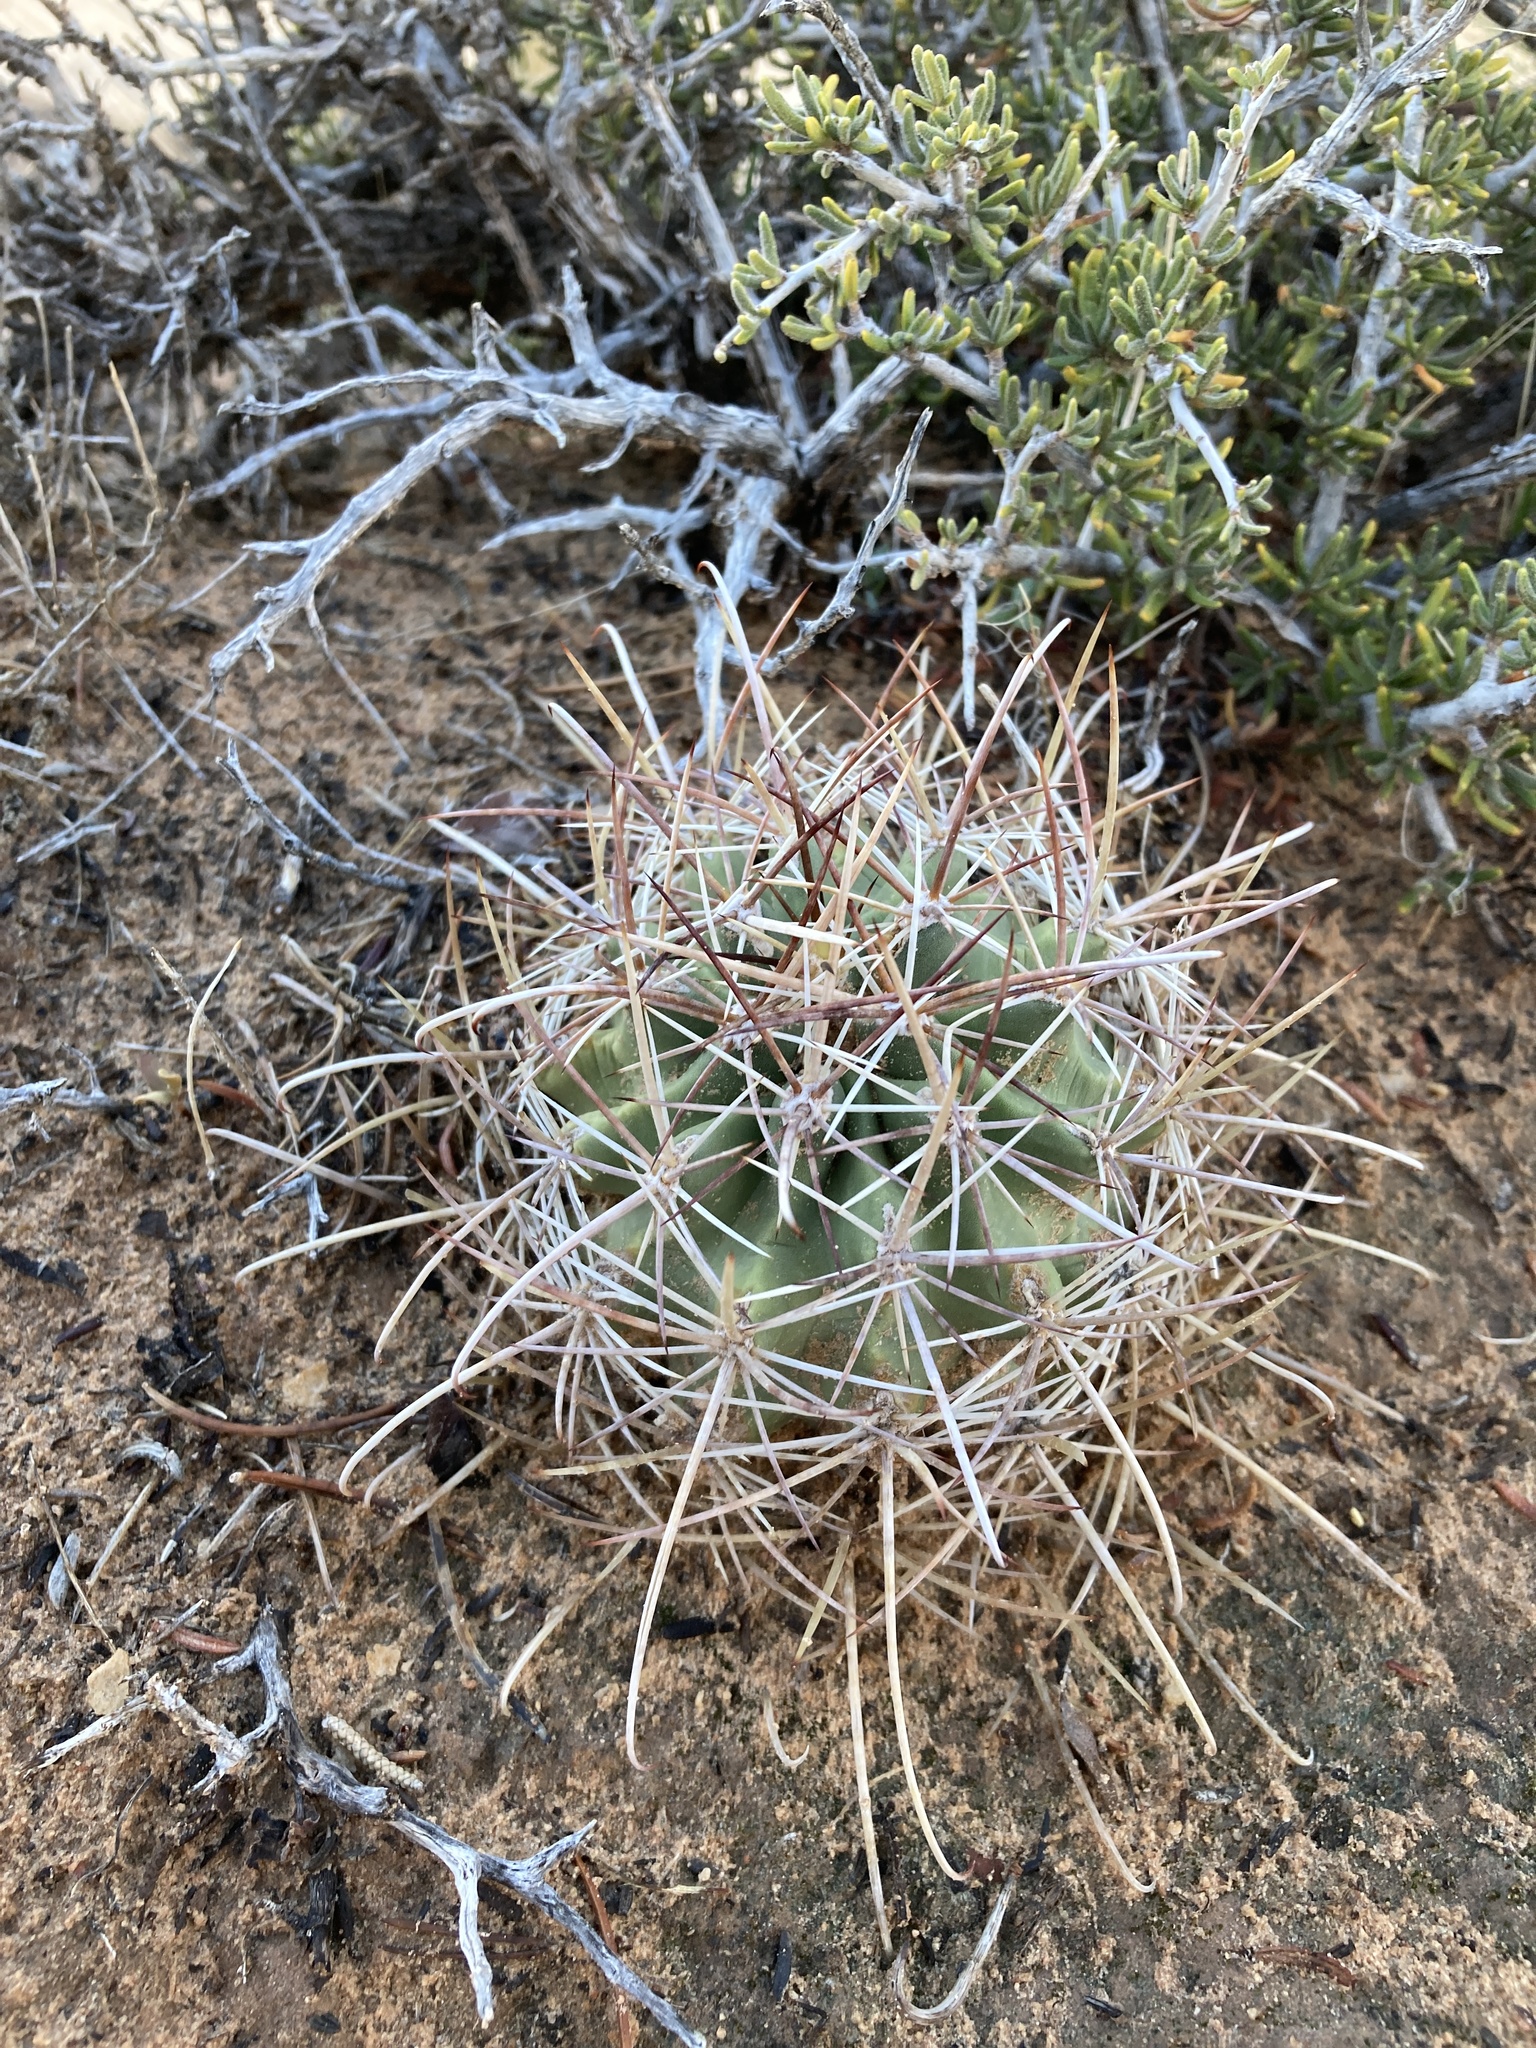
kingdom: Plantae
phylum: Tracheophyta
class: Magnoliopsida
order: Caryophyllales
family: Cactaceae
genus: Sclerocactus
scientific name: Sclerocactus parviflorus
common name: Small-flower fishhook cactus
